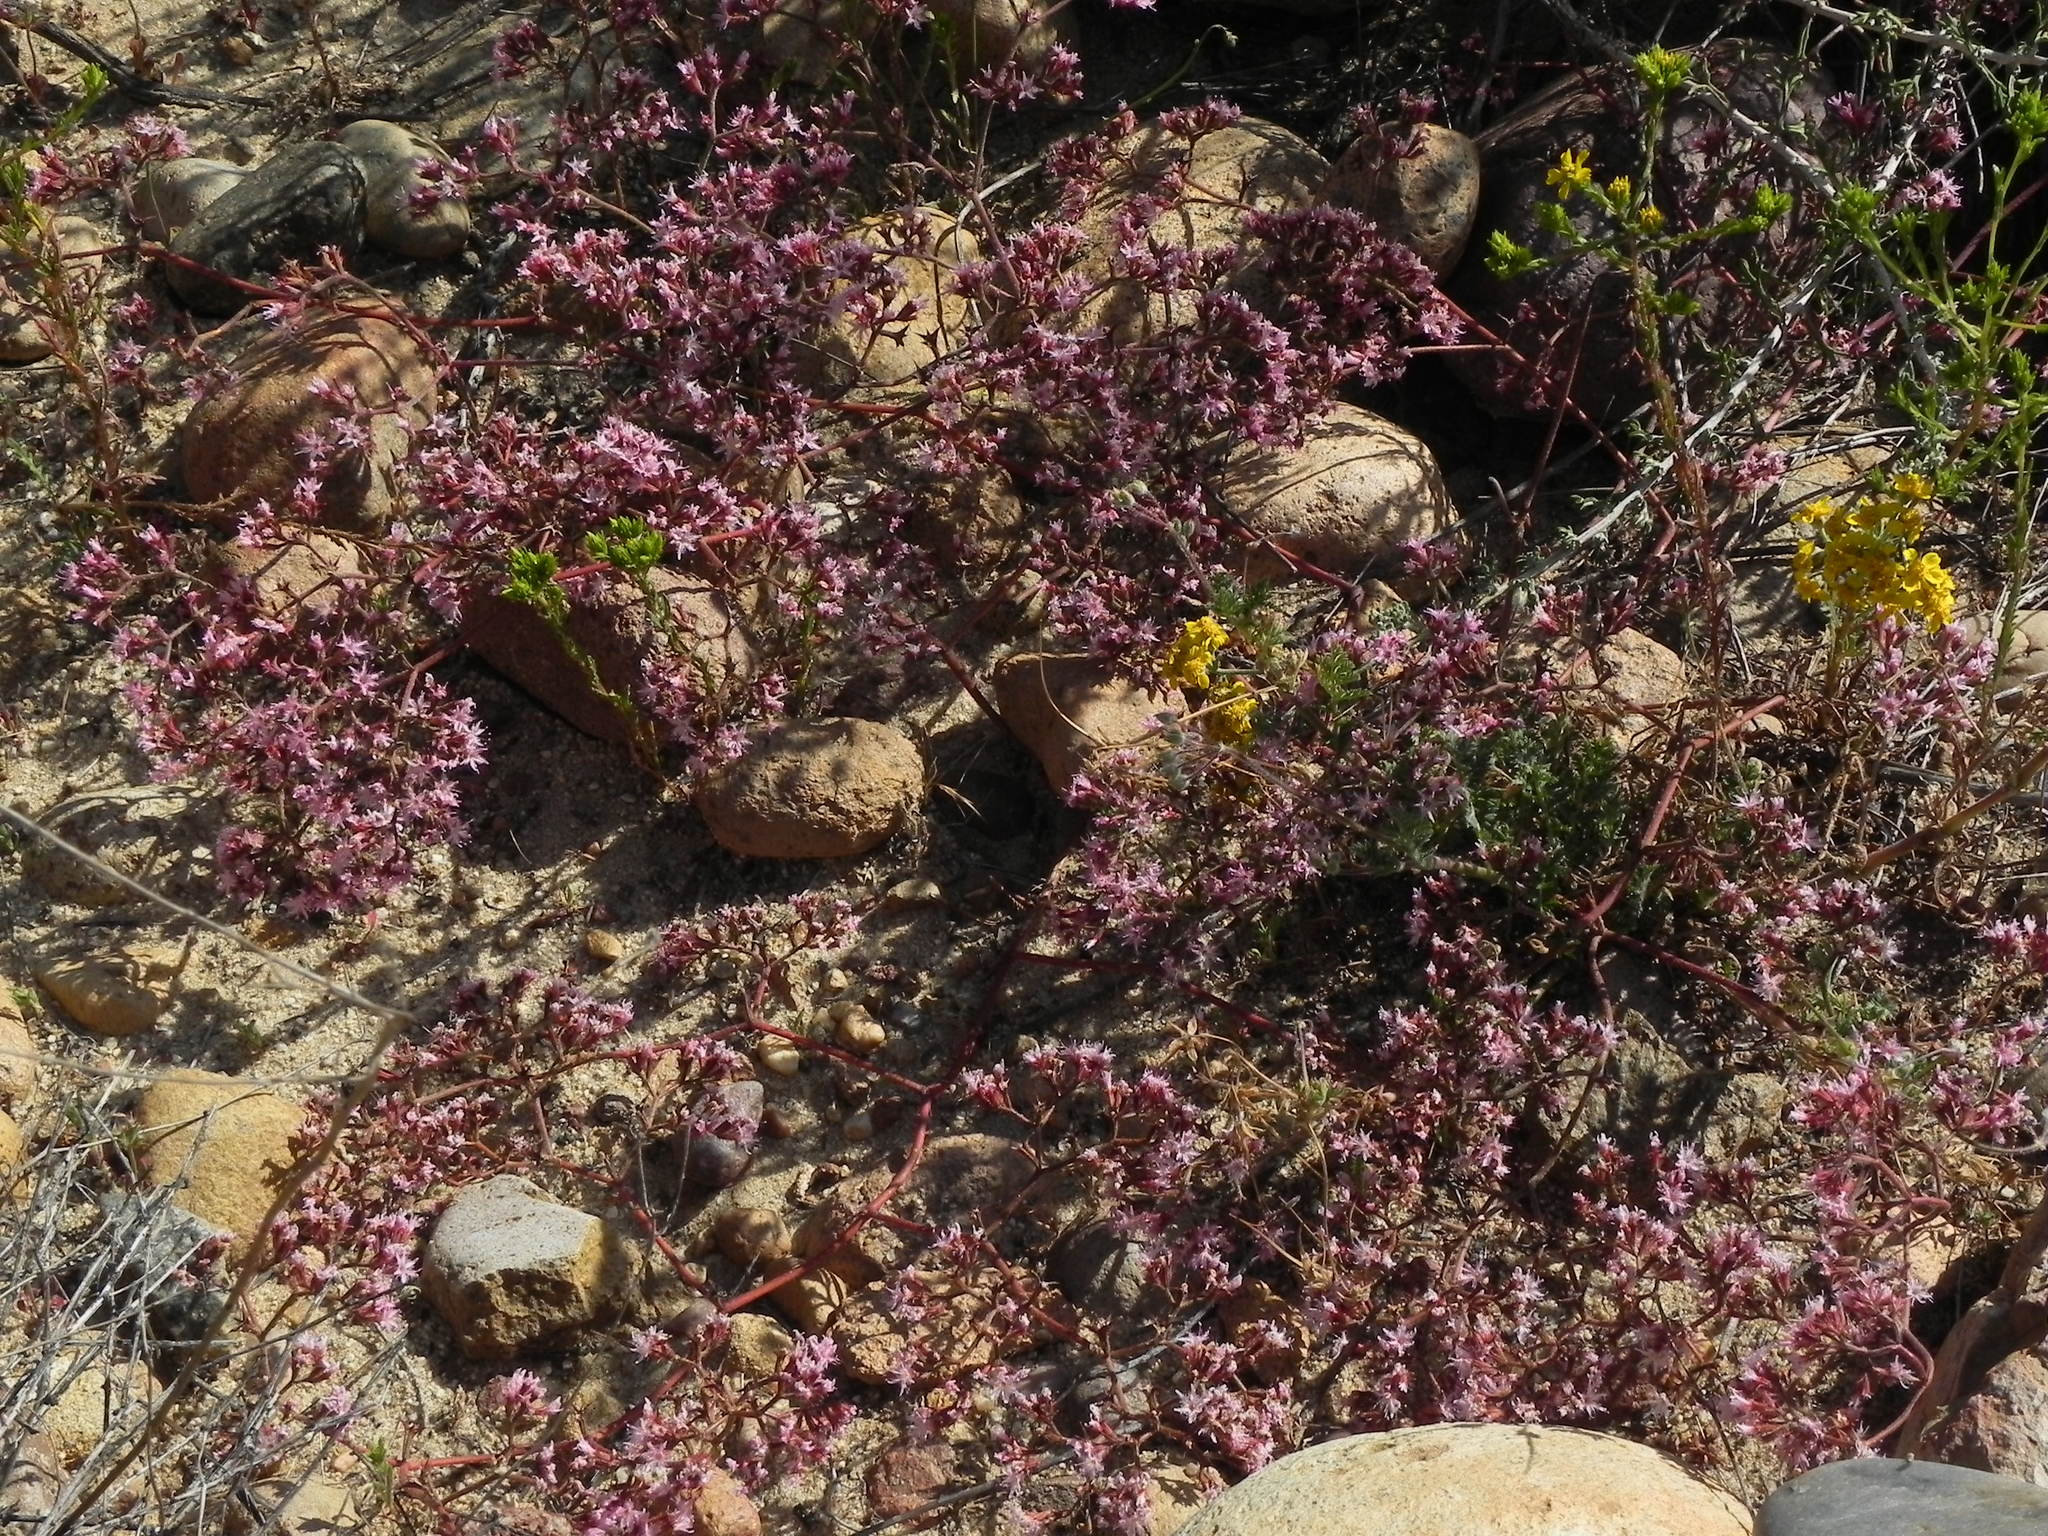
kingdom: Plantae
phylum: Tracheophyta
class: Magnoliopsida
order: Caryophyllales
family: Polygonaceae
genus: Chorizanthe
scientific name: Chorizanthe fimbriata
